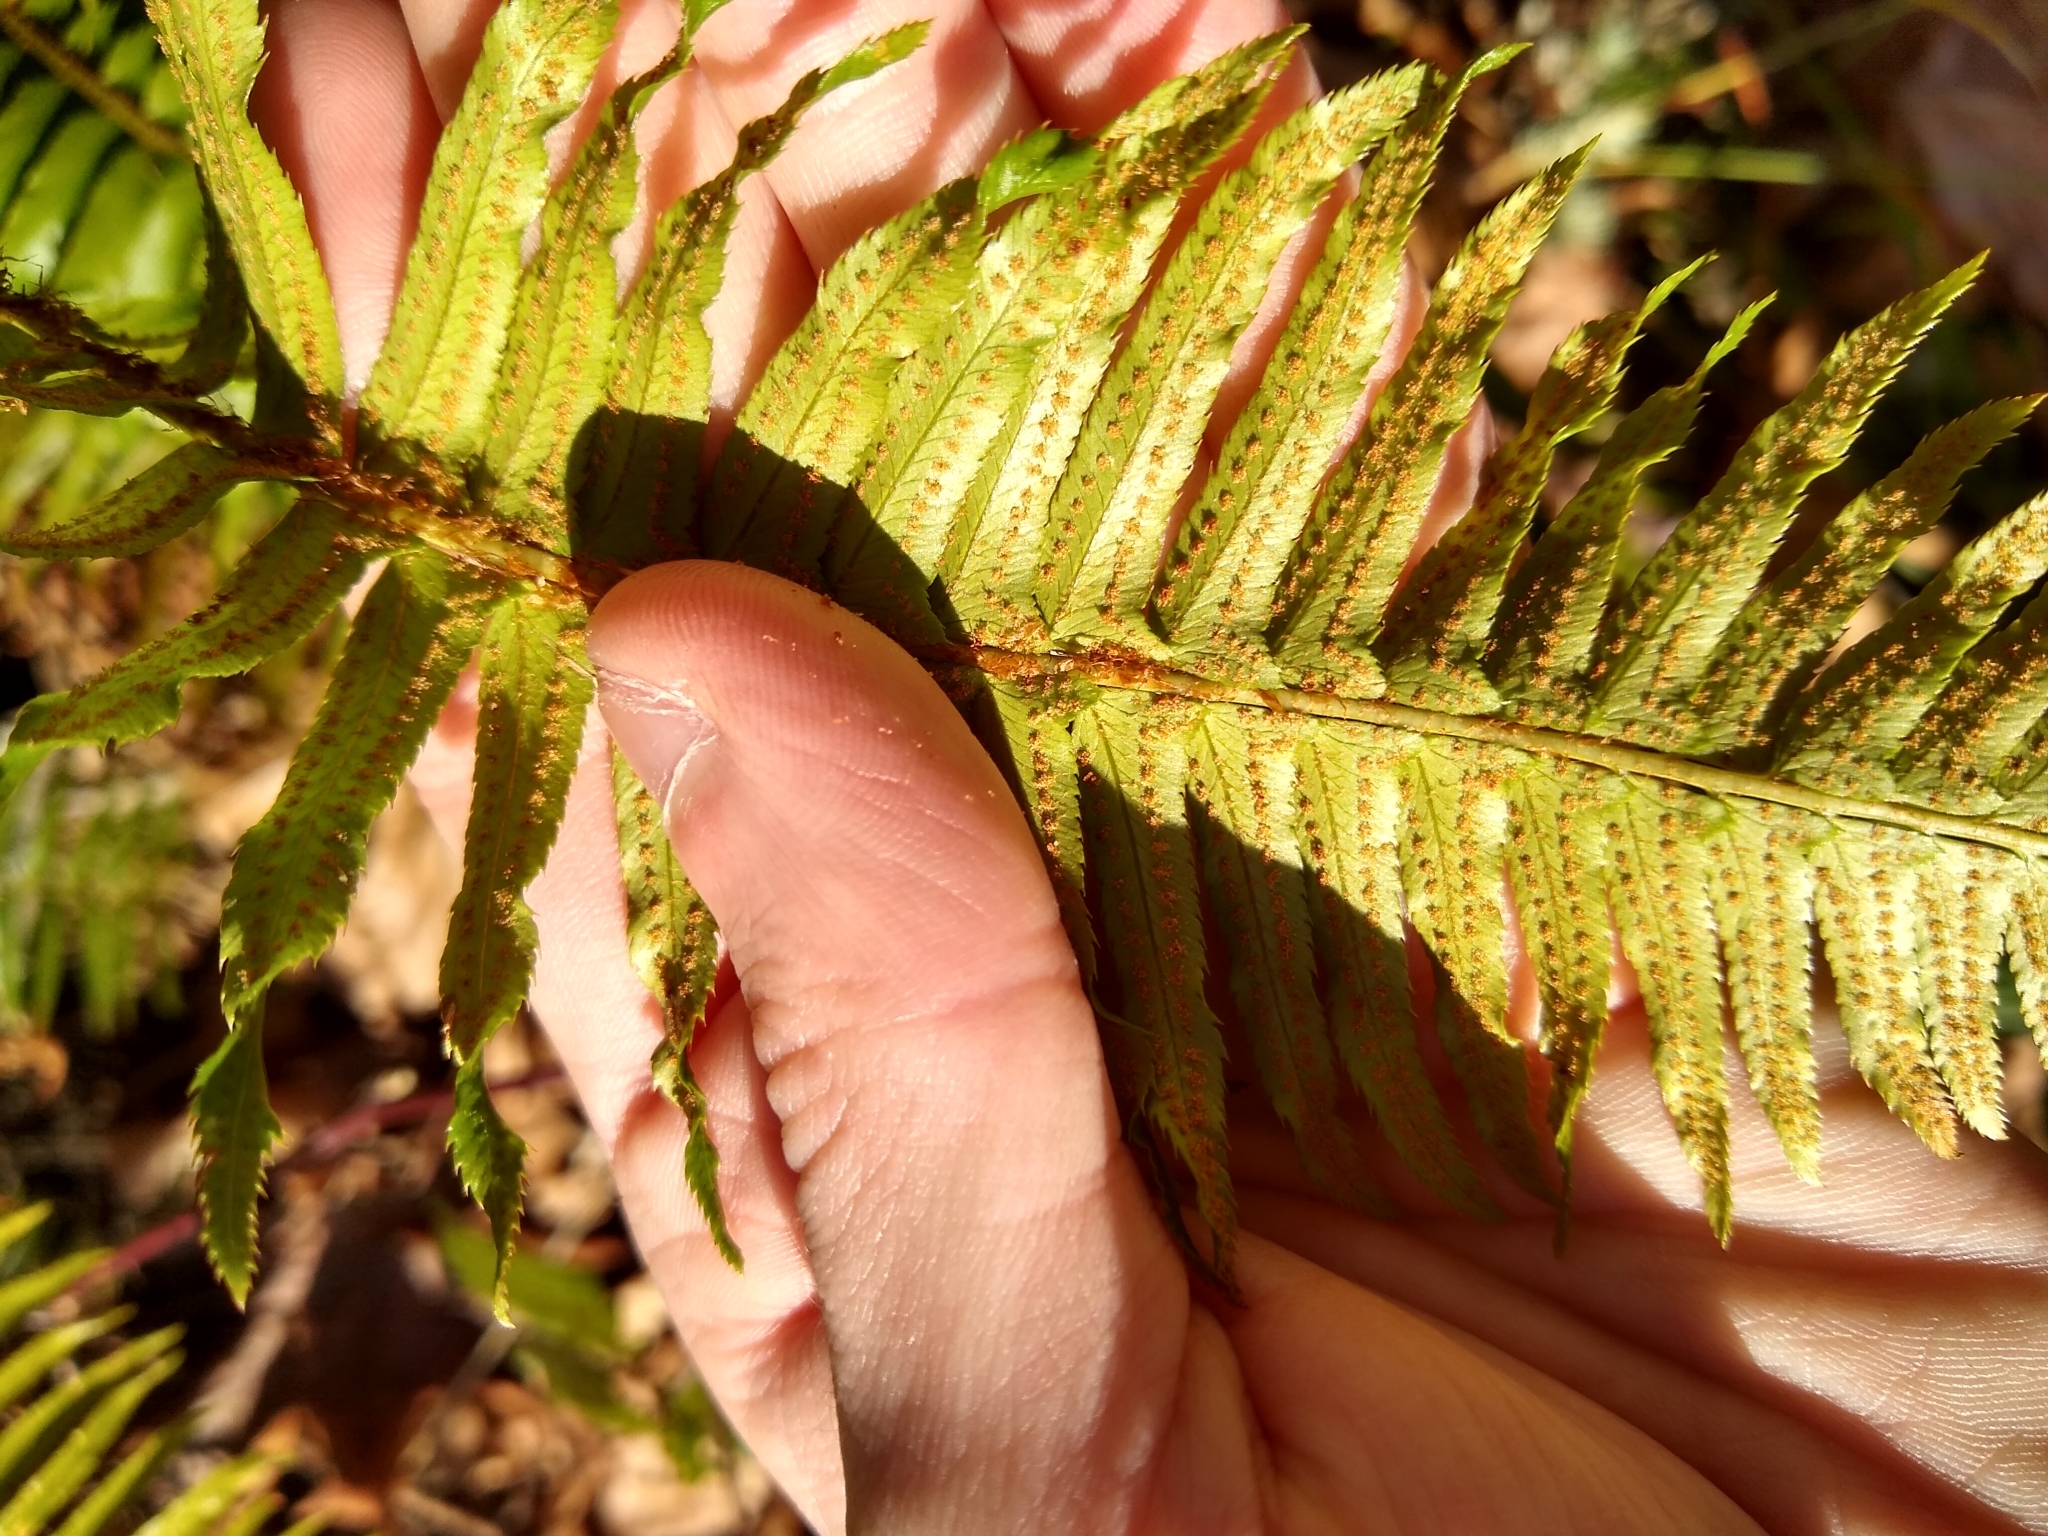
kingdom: Plantae
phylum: Tracheophyta
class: Polypodiopsida
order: Polypodiales
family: Dryopteridaceae
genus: Polystichum
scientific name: Polystichum munitum
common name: Western sword-fern
